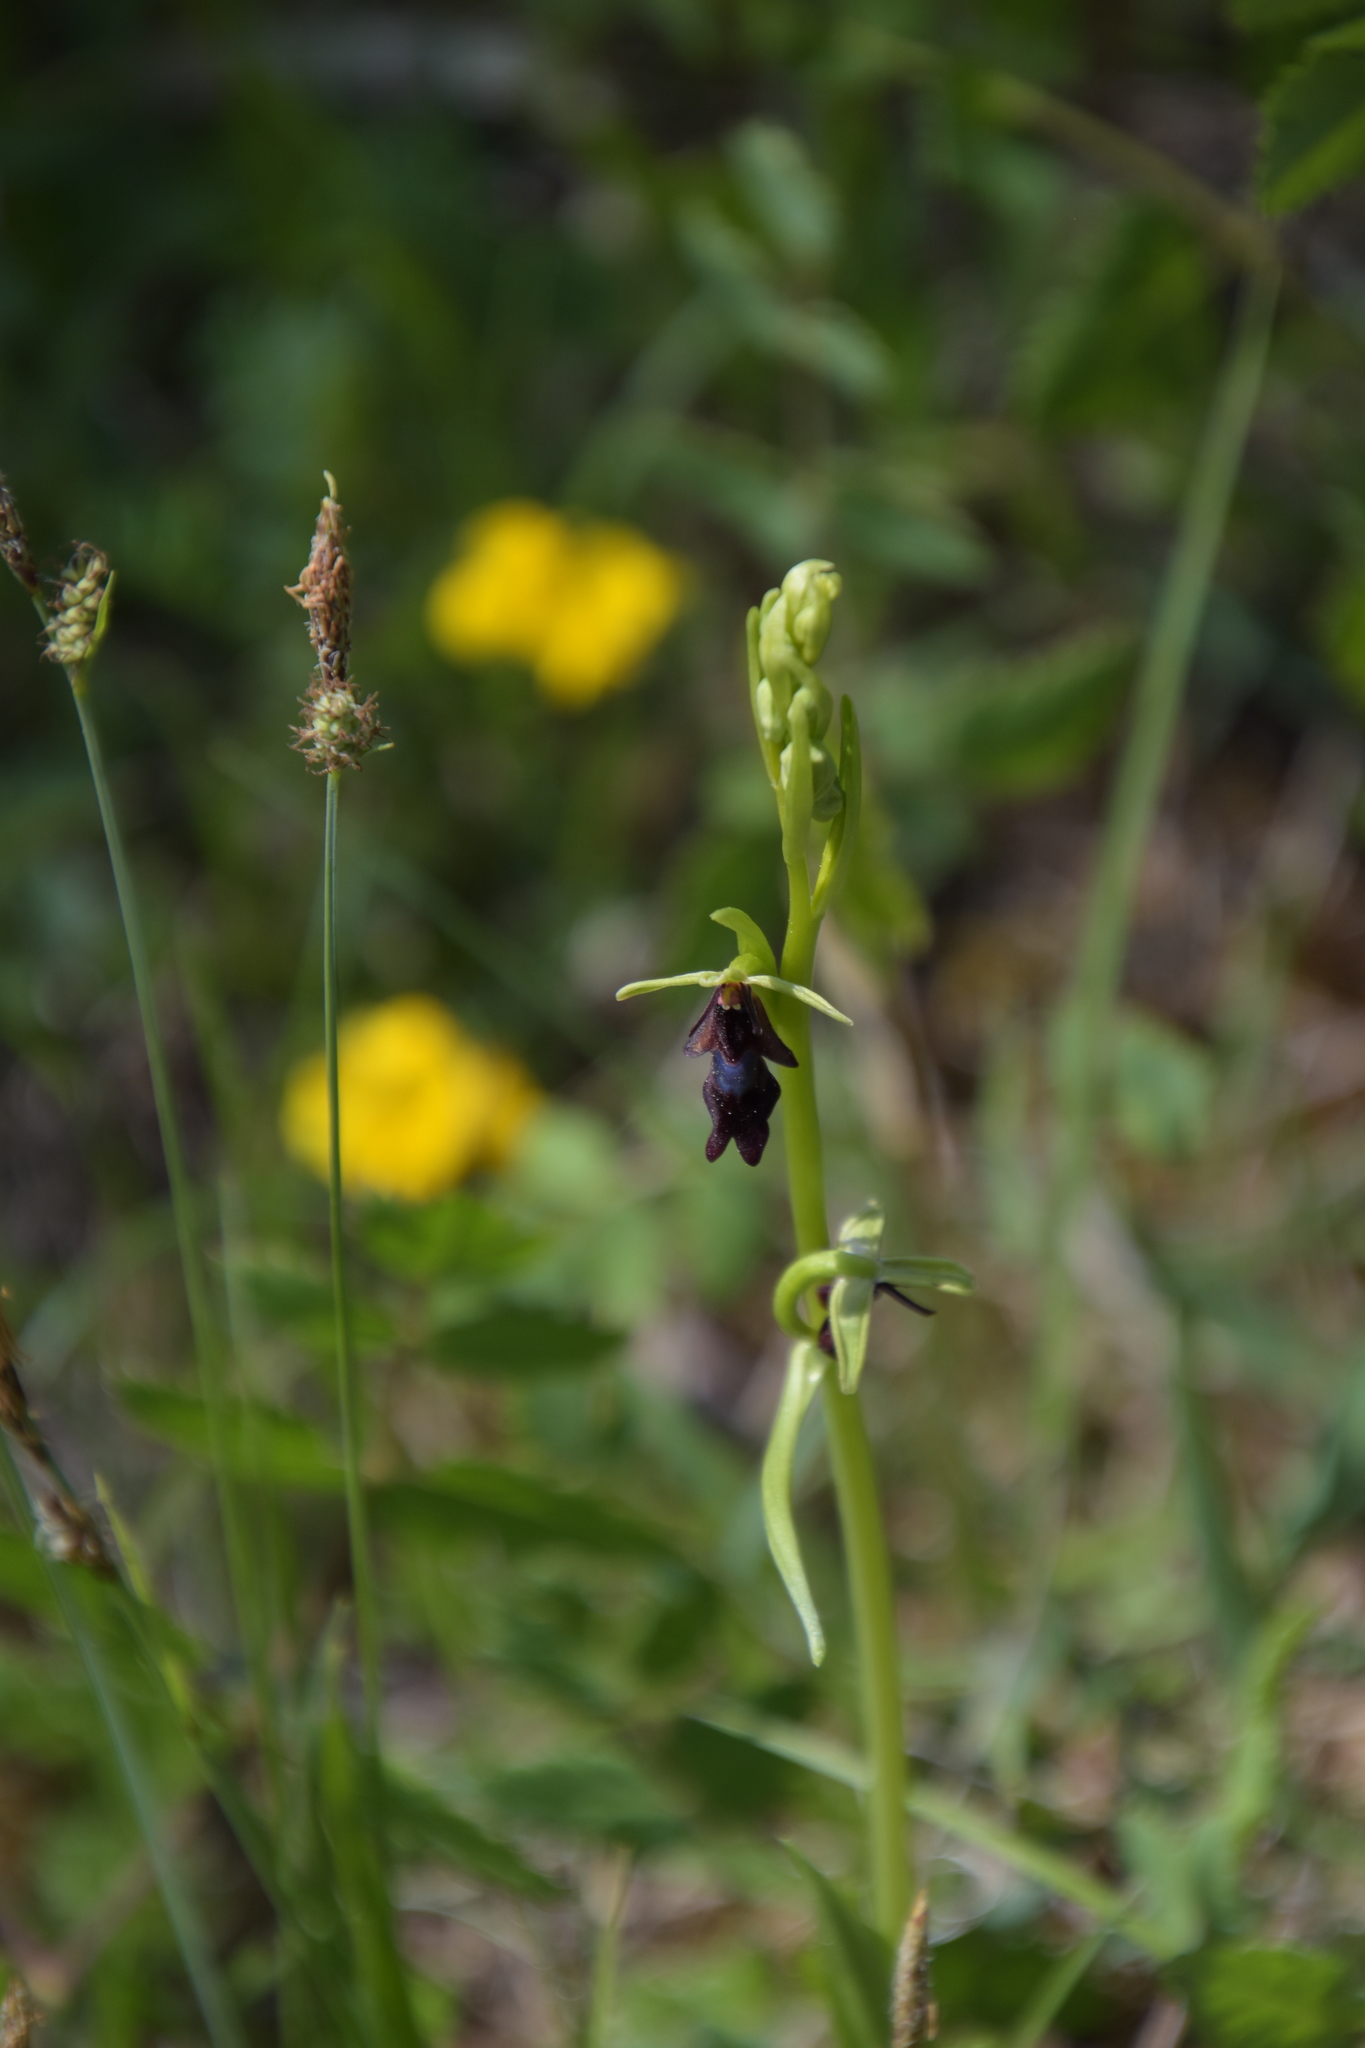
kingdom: Plantae
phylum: Tracheophyta
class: Liliopsida
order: Asparagales
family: Orchidaceae
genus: Ophrys
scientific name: Ophrys insectifera
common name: Fly orchid
